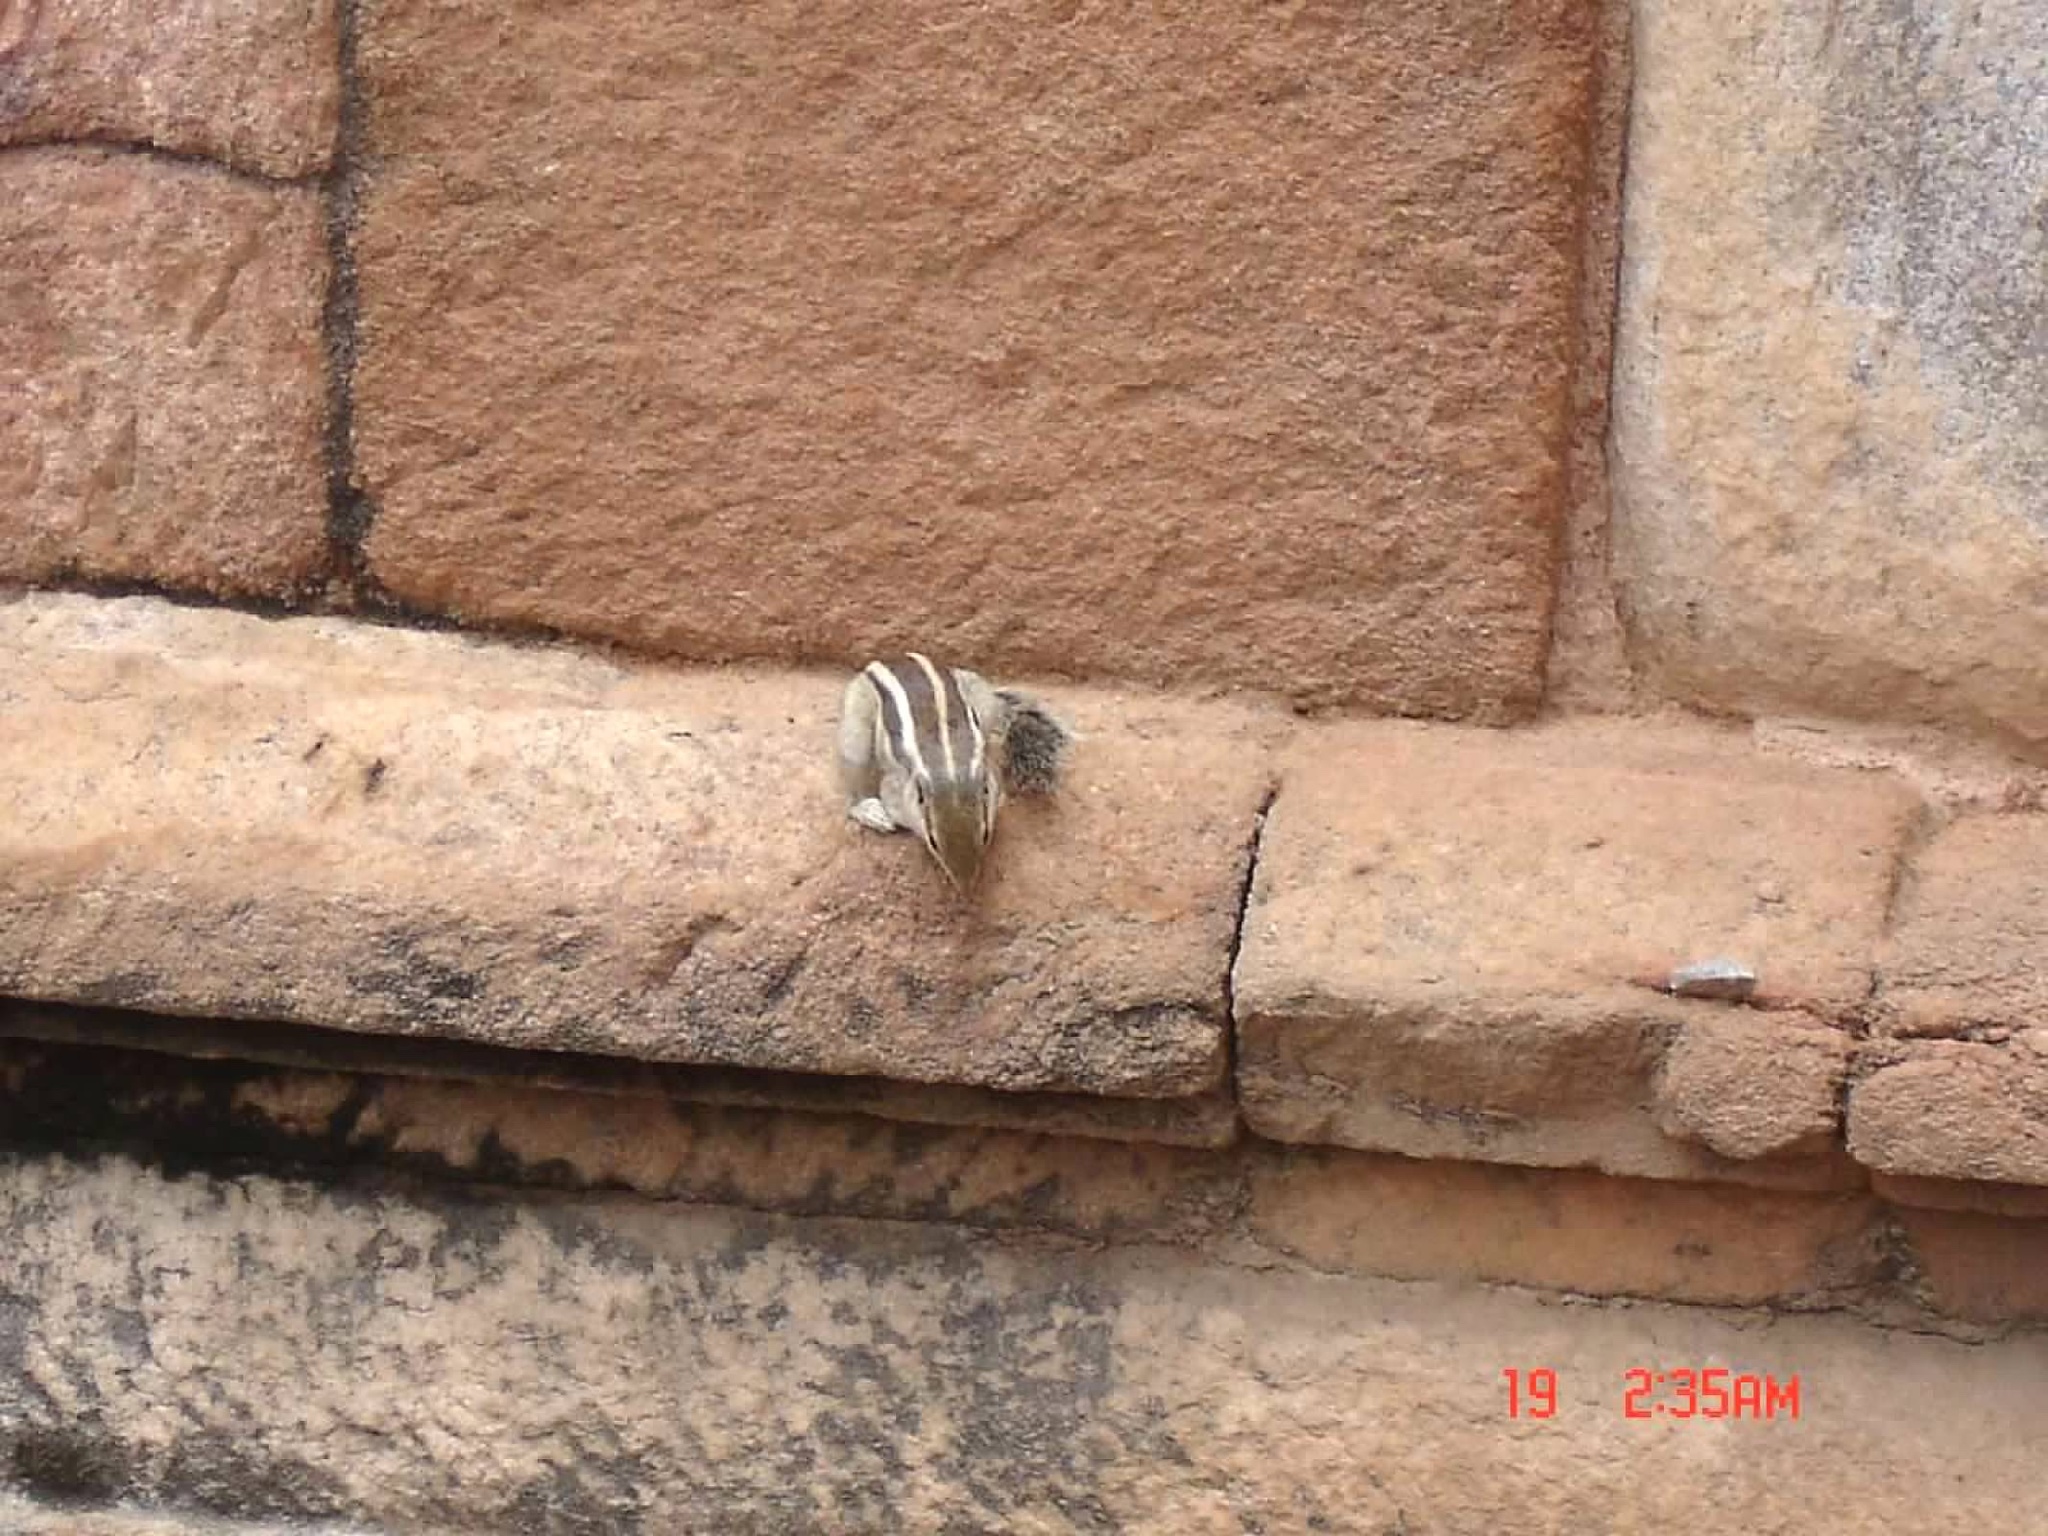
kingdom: Animalia
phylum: Chordata
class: Mammalia
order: Rodentia
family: Sciuridae
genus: Funambulus
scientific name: Funambulus pennantii
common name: Northern palm squirrel
